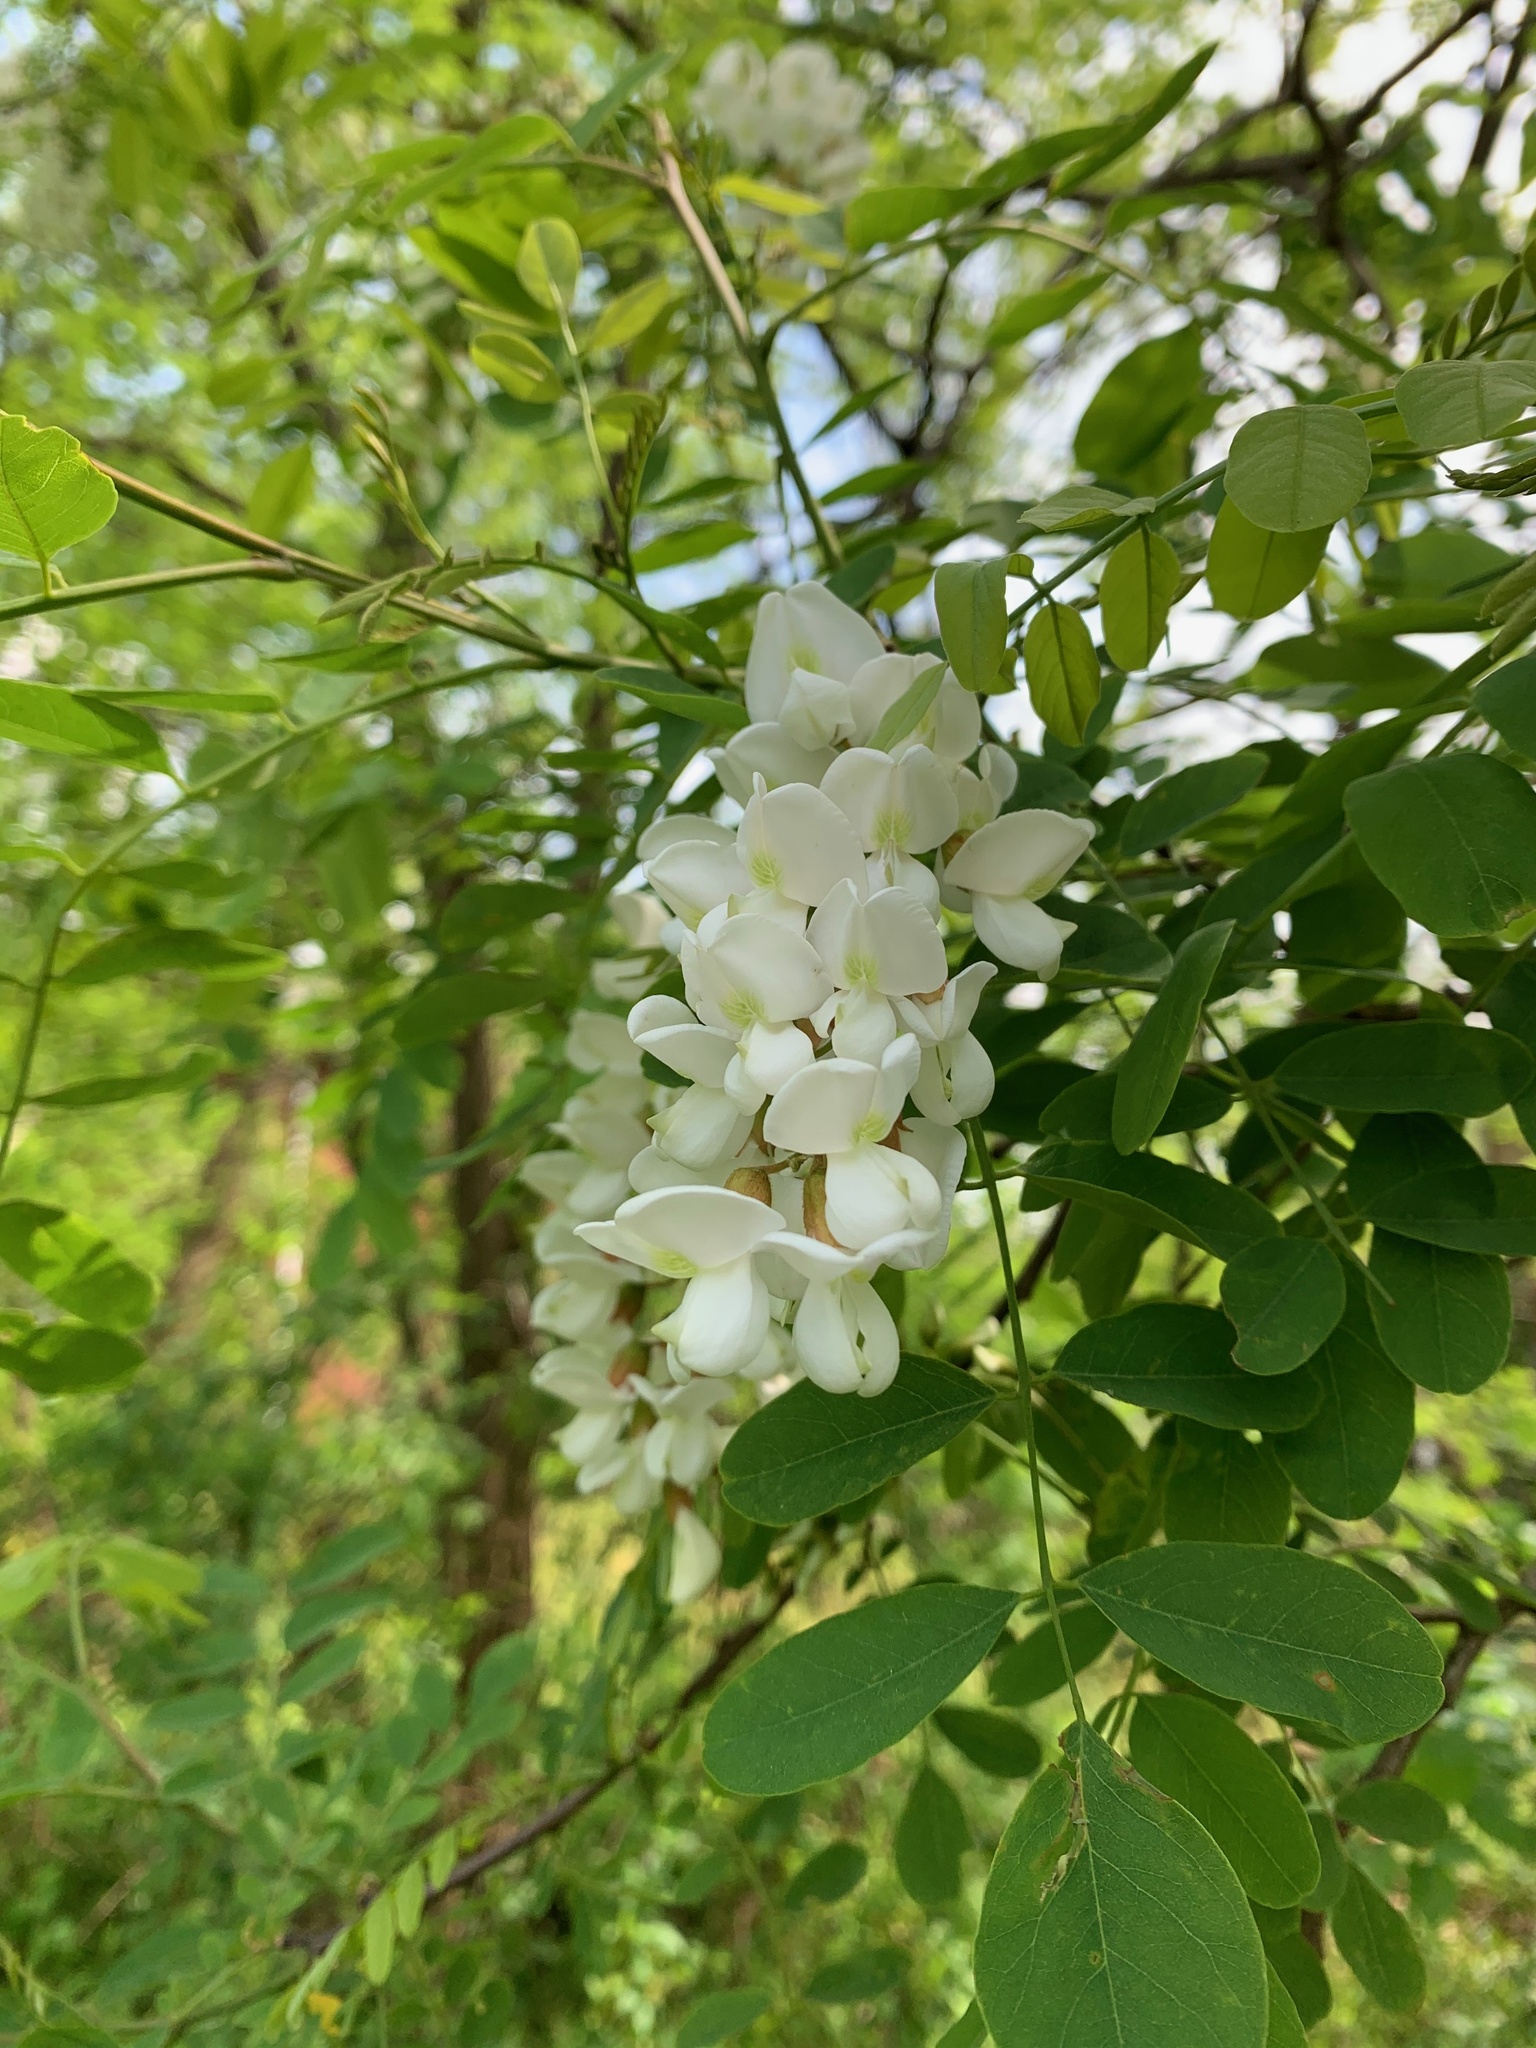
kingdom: Plantae
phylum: Tracheophyta
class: Magnoliopsida
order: Fabales
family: Fabaceae
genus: Robinia
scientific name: Robinia pseudoacacia
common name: Black locust
